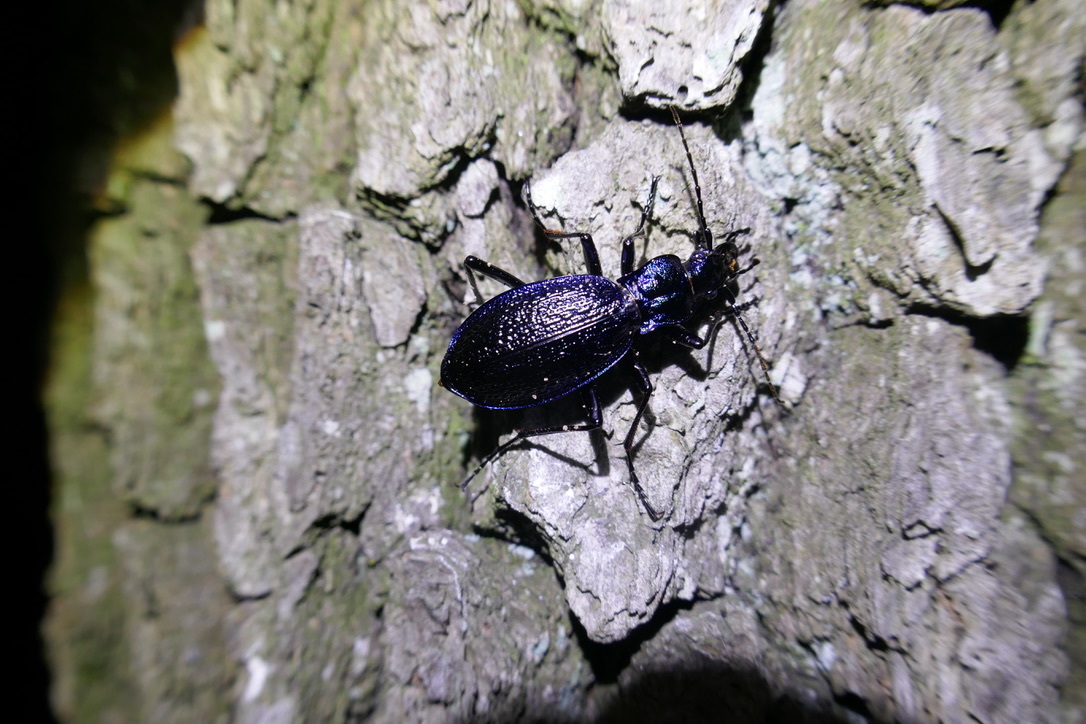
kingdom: Animalia
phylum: Arthropoda
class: Insecta
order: Coleoptera
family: Carabidae
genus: Carabus
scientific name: Carabus intricatus
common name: Blue ground beetle
